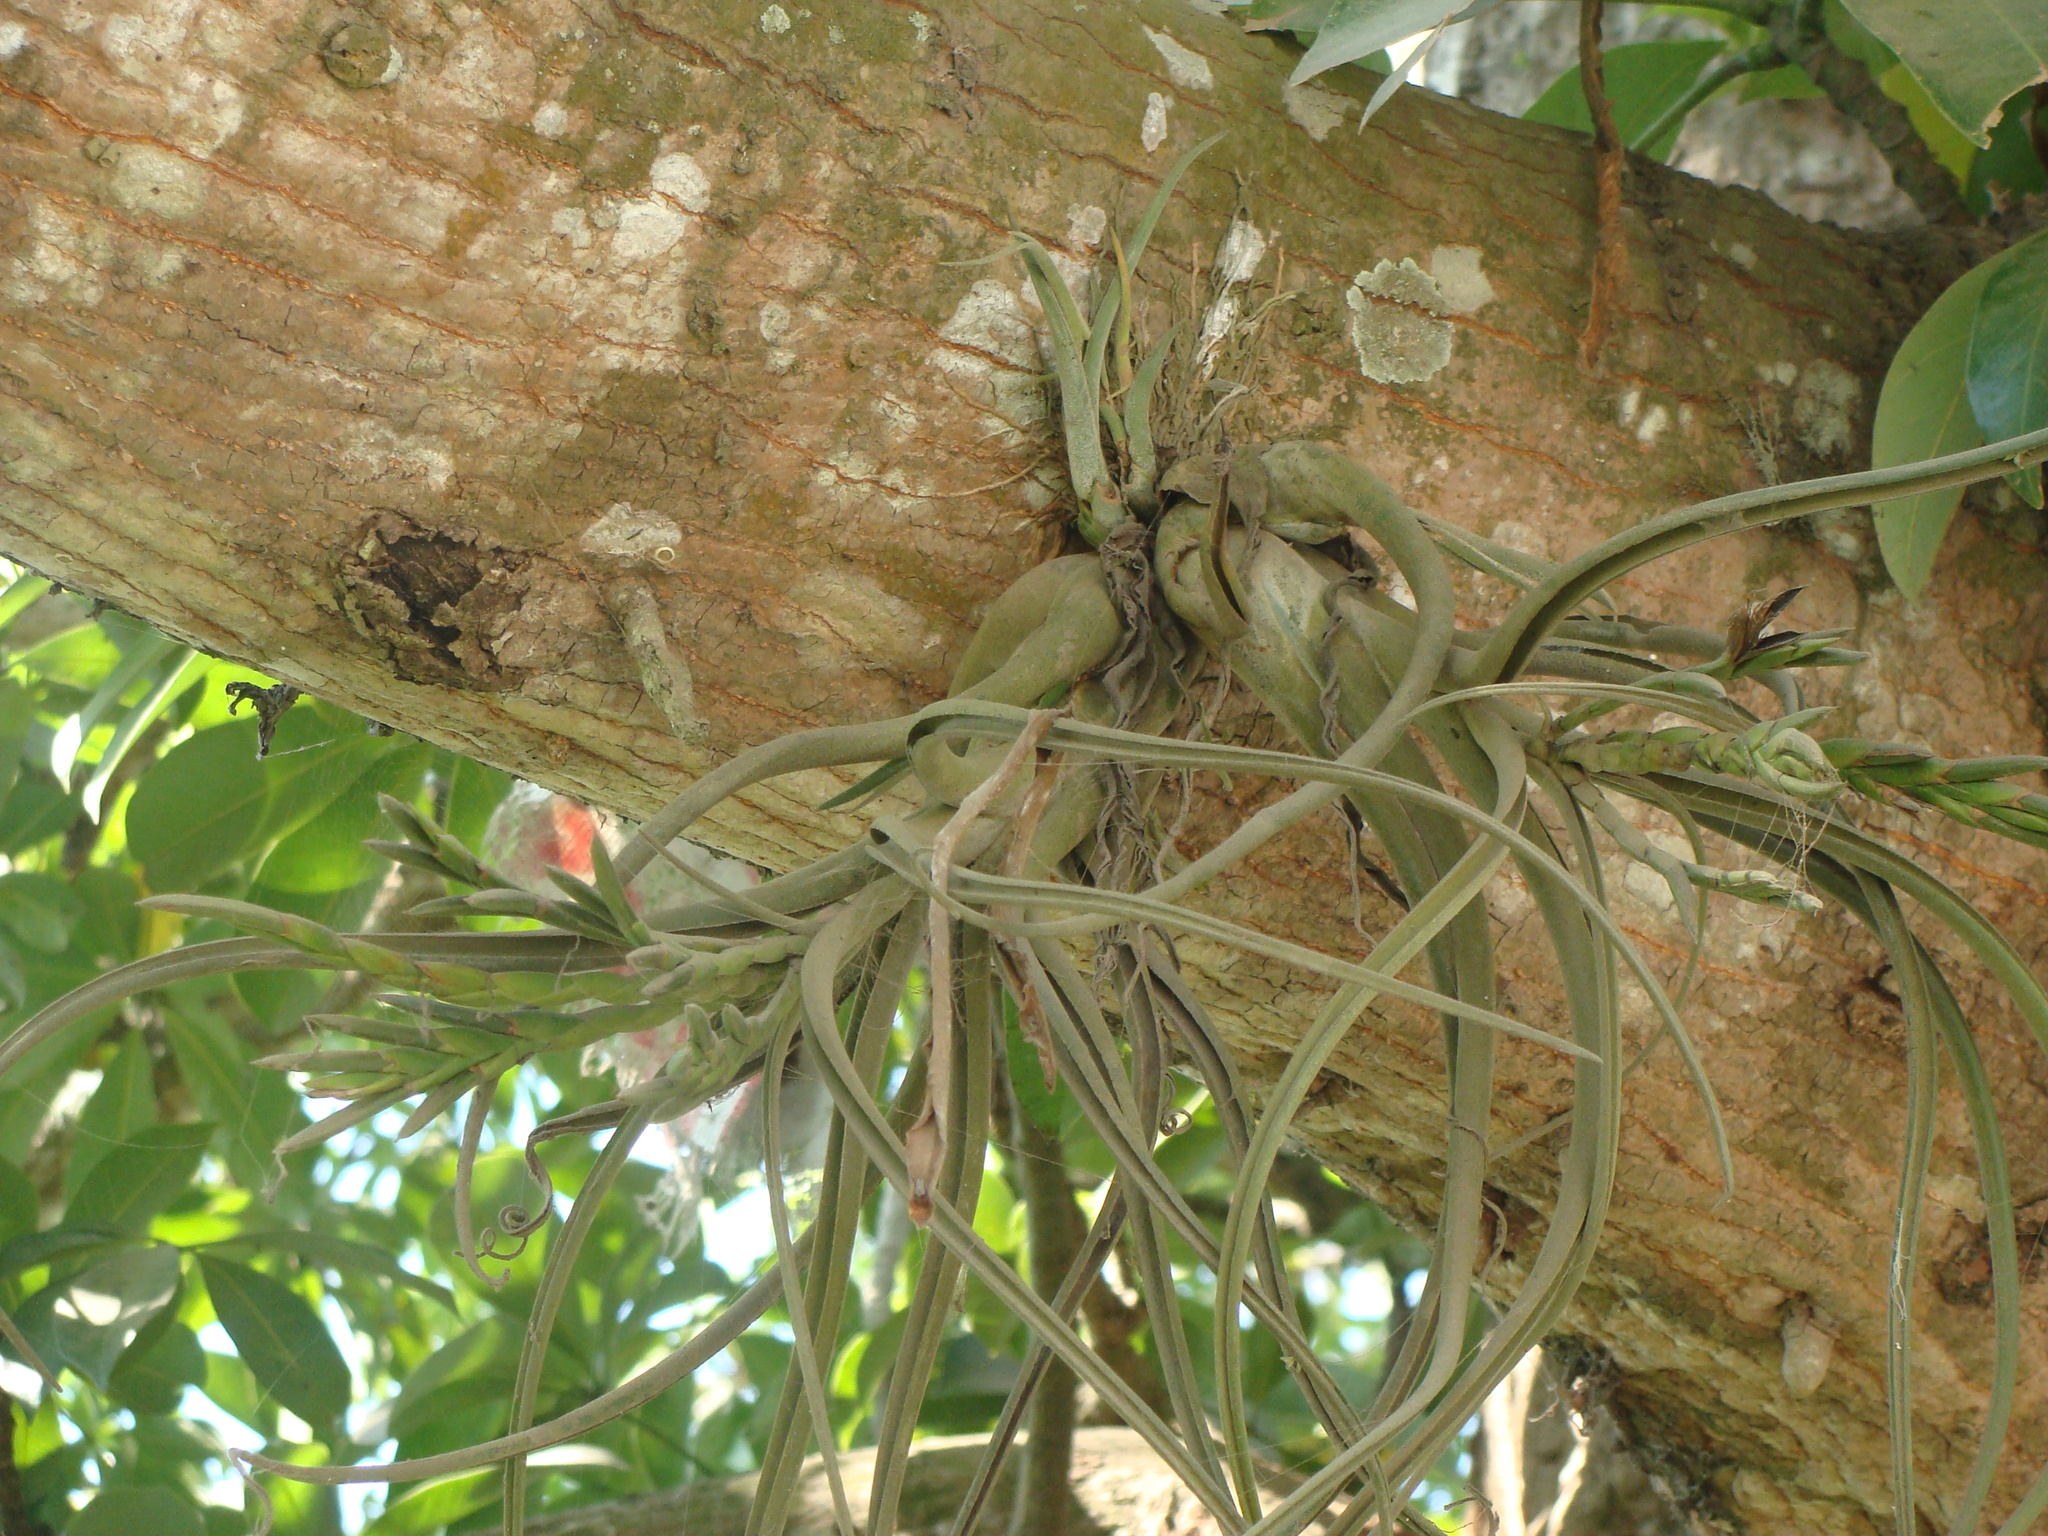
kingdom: Plantae
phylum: Tracheophyta
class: Liliopsida
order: Poales
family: Bromeliaceae
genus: Tillandsia
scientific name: Tillandsia caput-medusae
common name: Octopus plant
